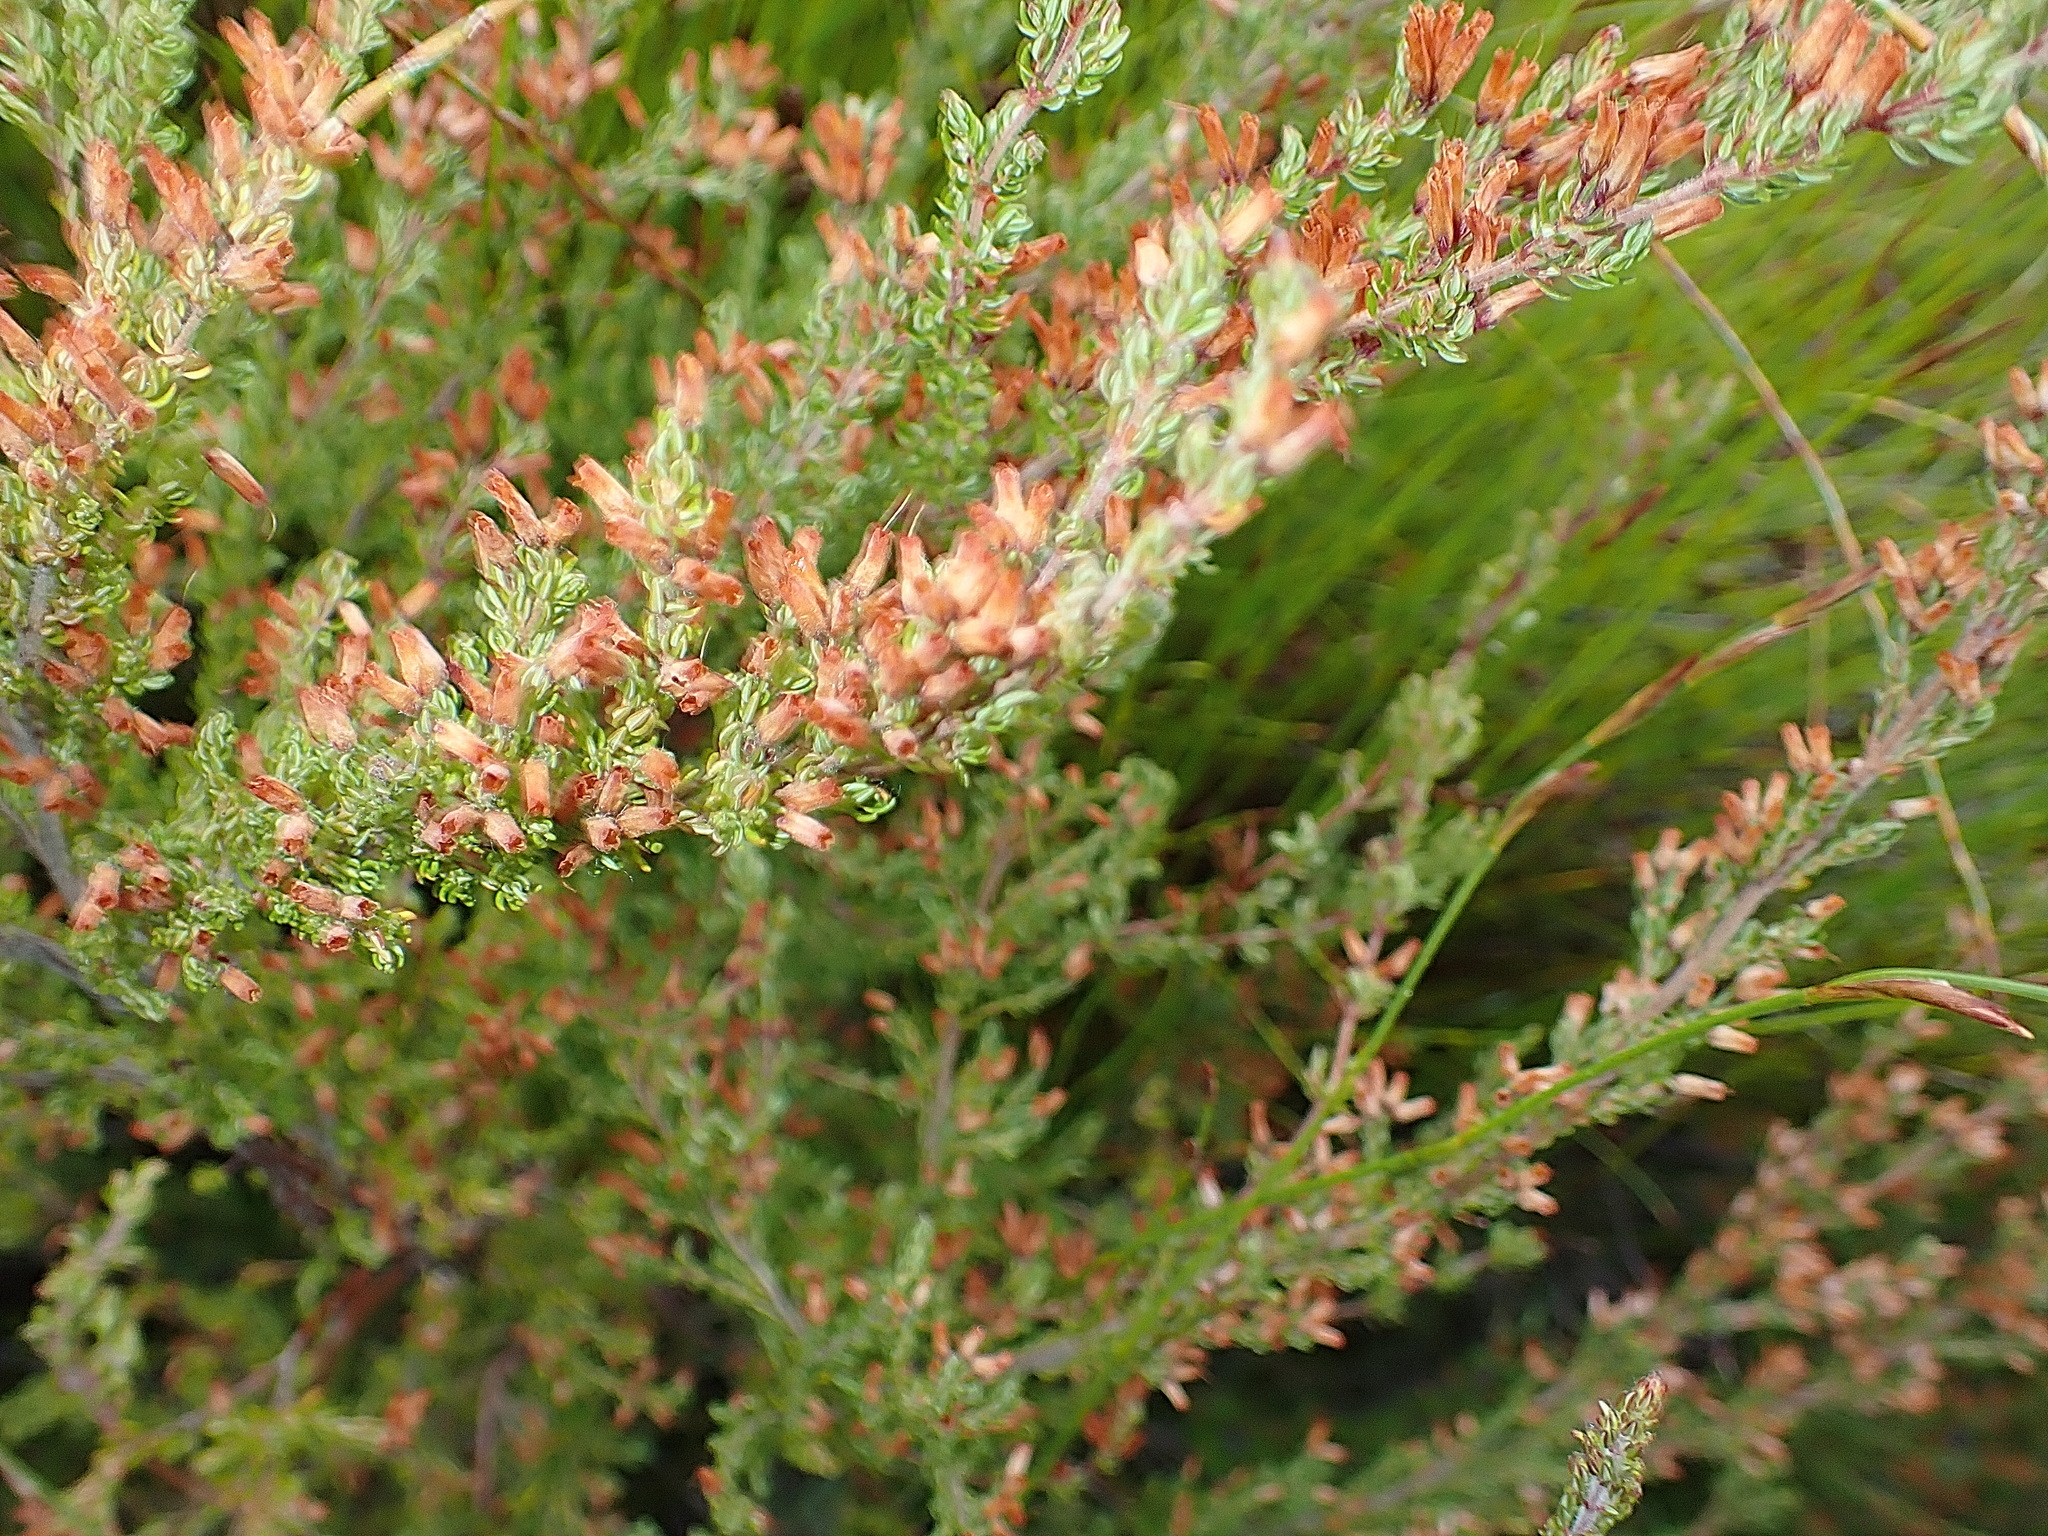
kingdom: Plantae
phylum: Tracheophyta
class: Magnoliopsida
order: Ericales
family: Ericaceae
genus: Erica
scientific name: Erica longimontana
